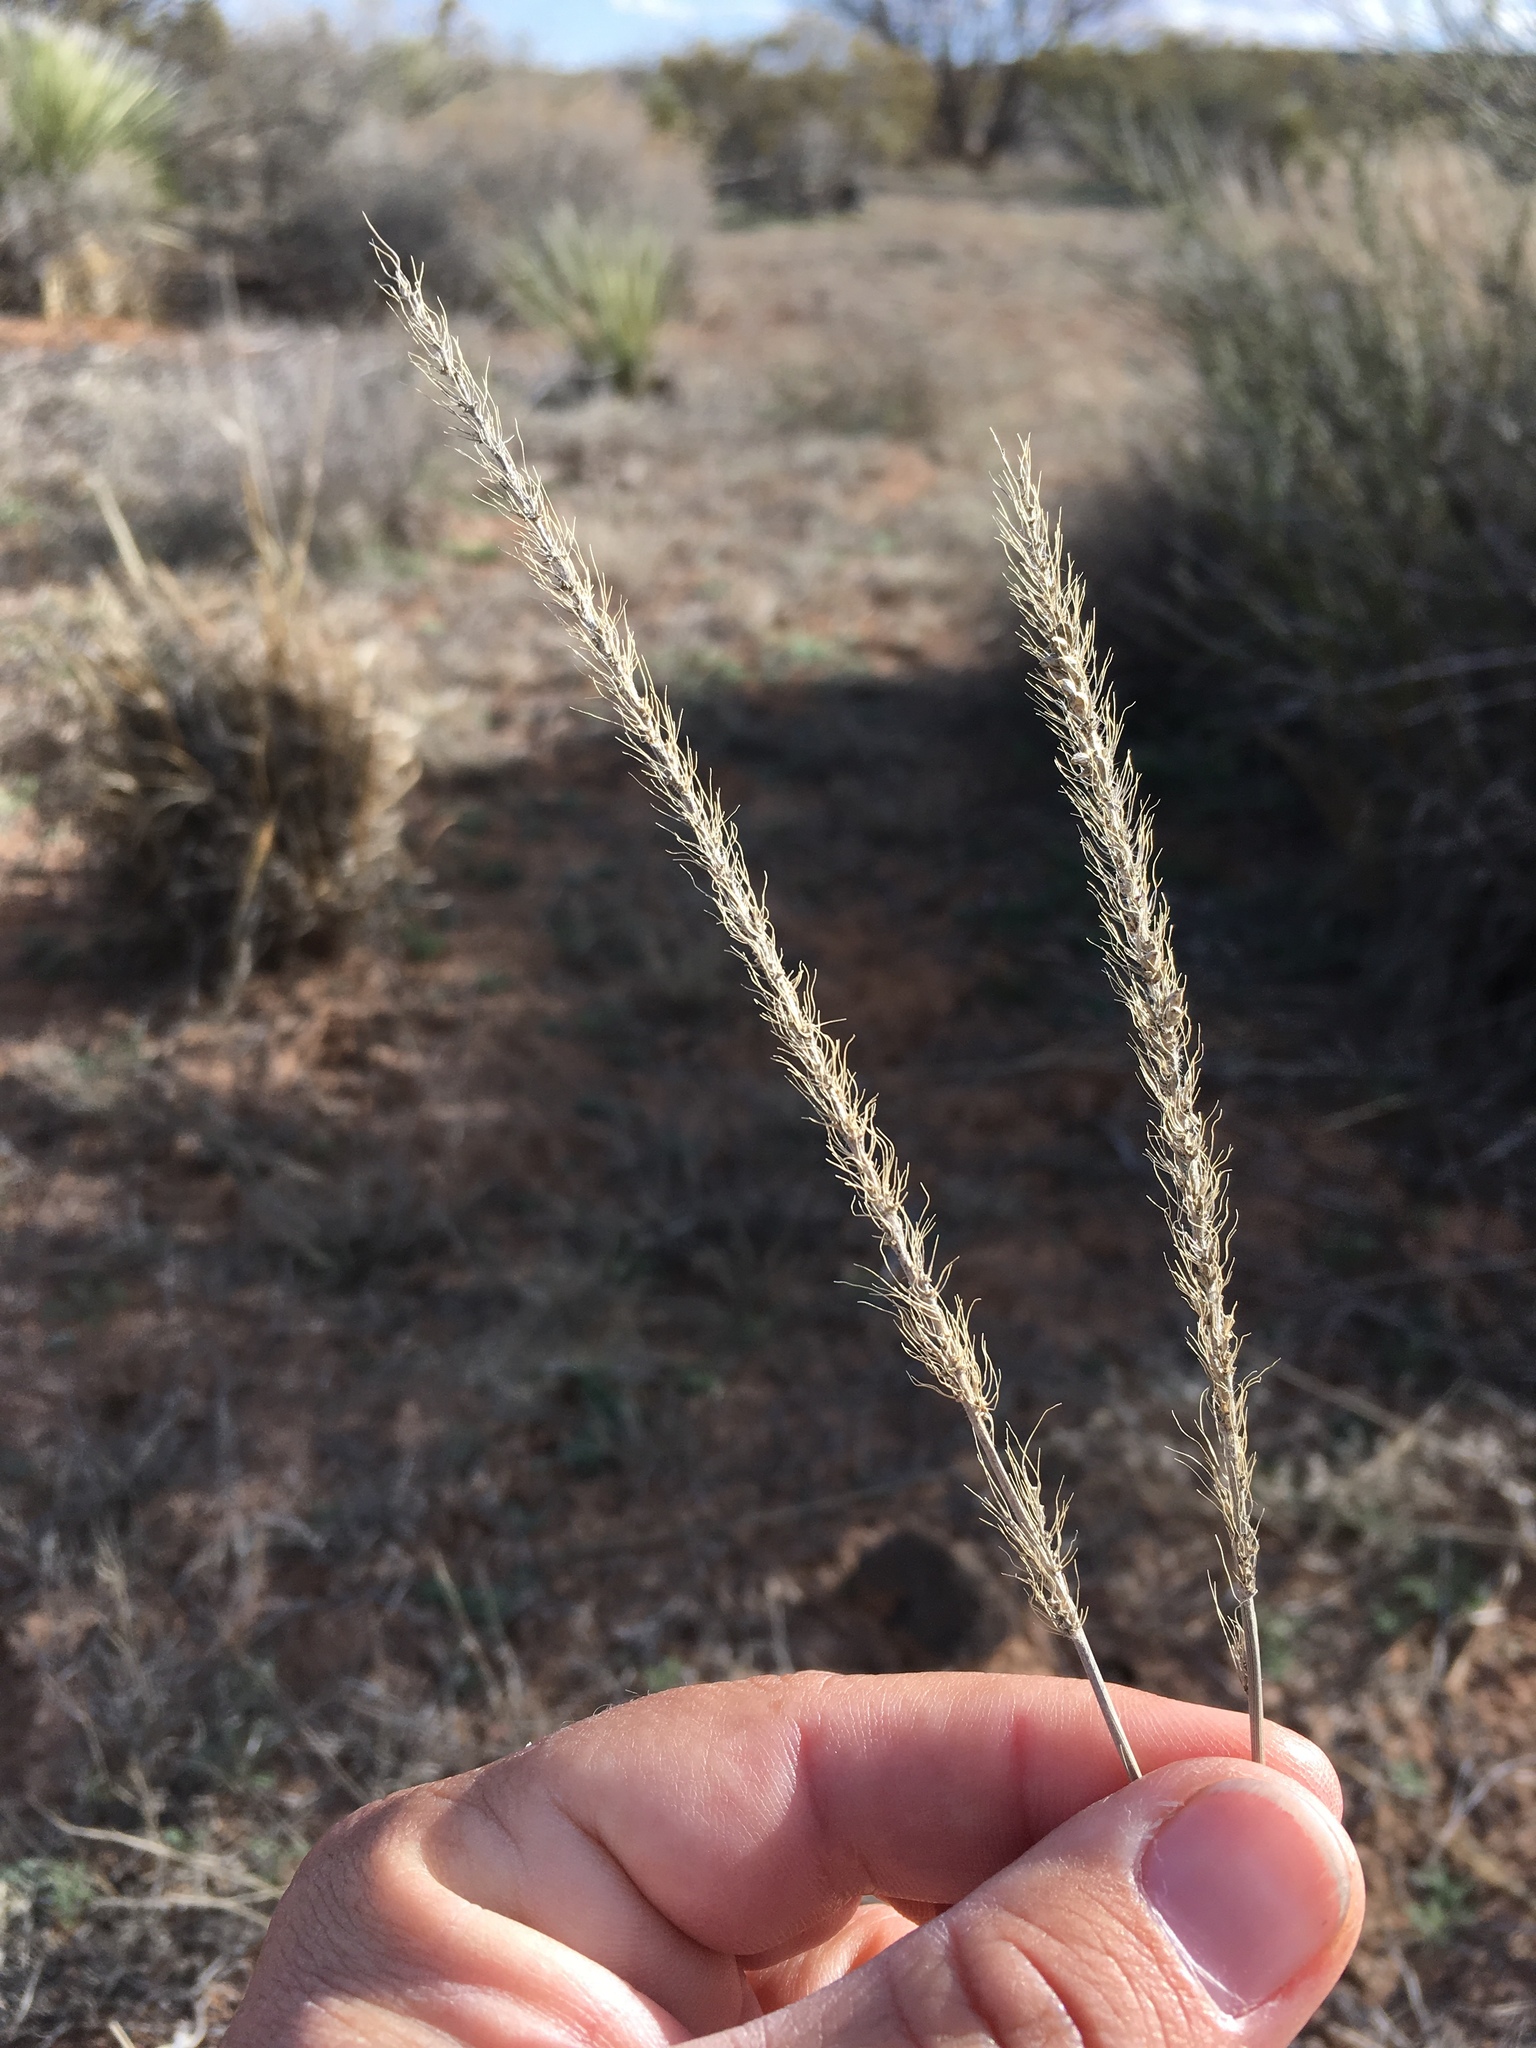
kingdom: Plantae
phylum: Tracheophyta
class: Liliopsida
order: Poales
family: Poaceae
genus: Setaria
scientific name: Setaria leucopila
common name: Plains bristle grass
